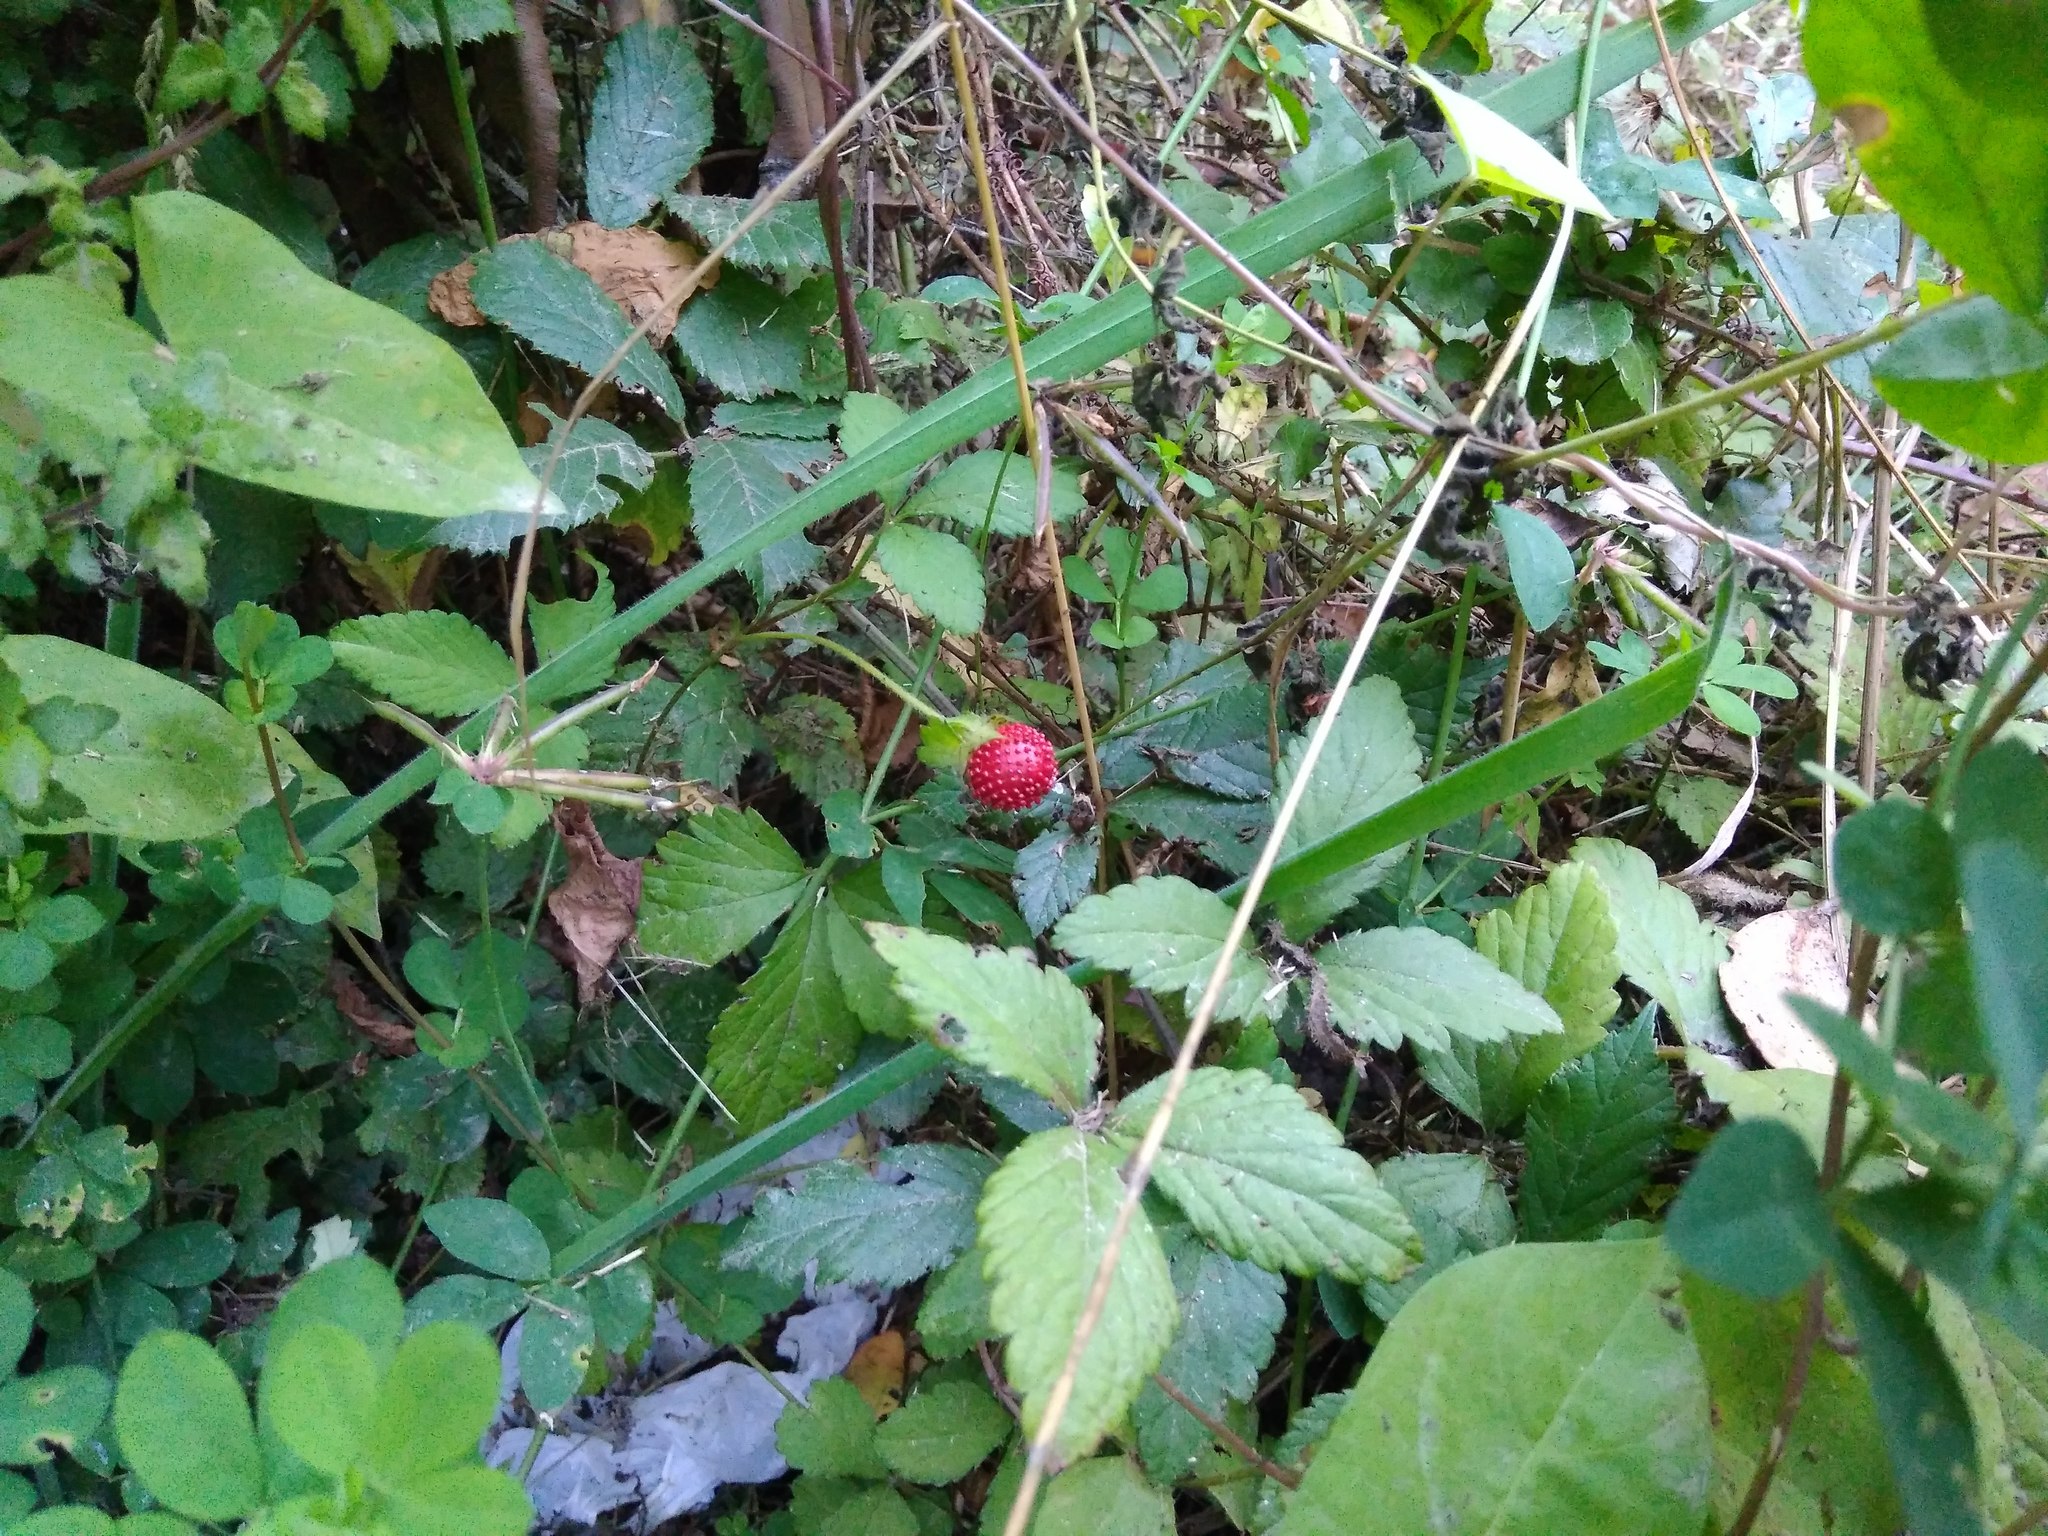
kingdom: Plantae
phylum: Tracheophyta
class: Magnoliopsida
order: Rosales
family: Rosaceae
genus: Potentilla
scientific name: Potentilla indica
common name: Yellow-flowered strawberry
